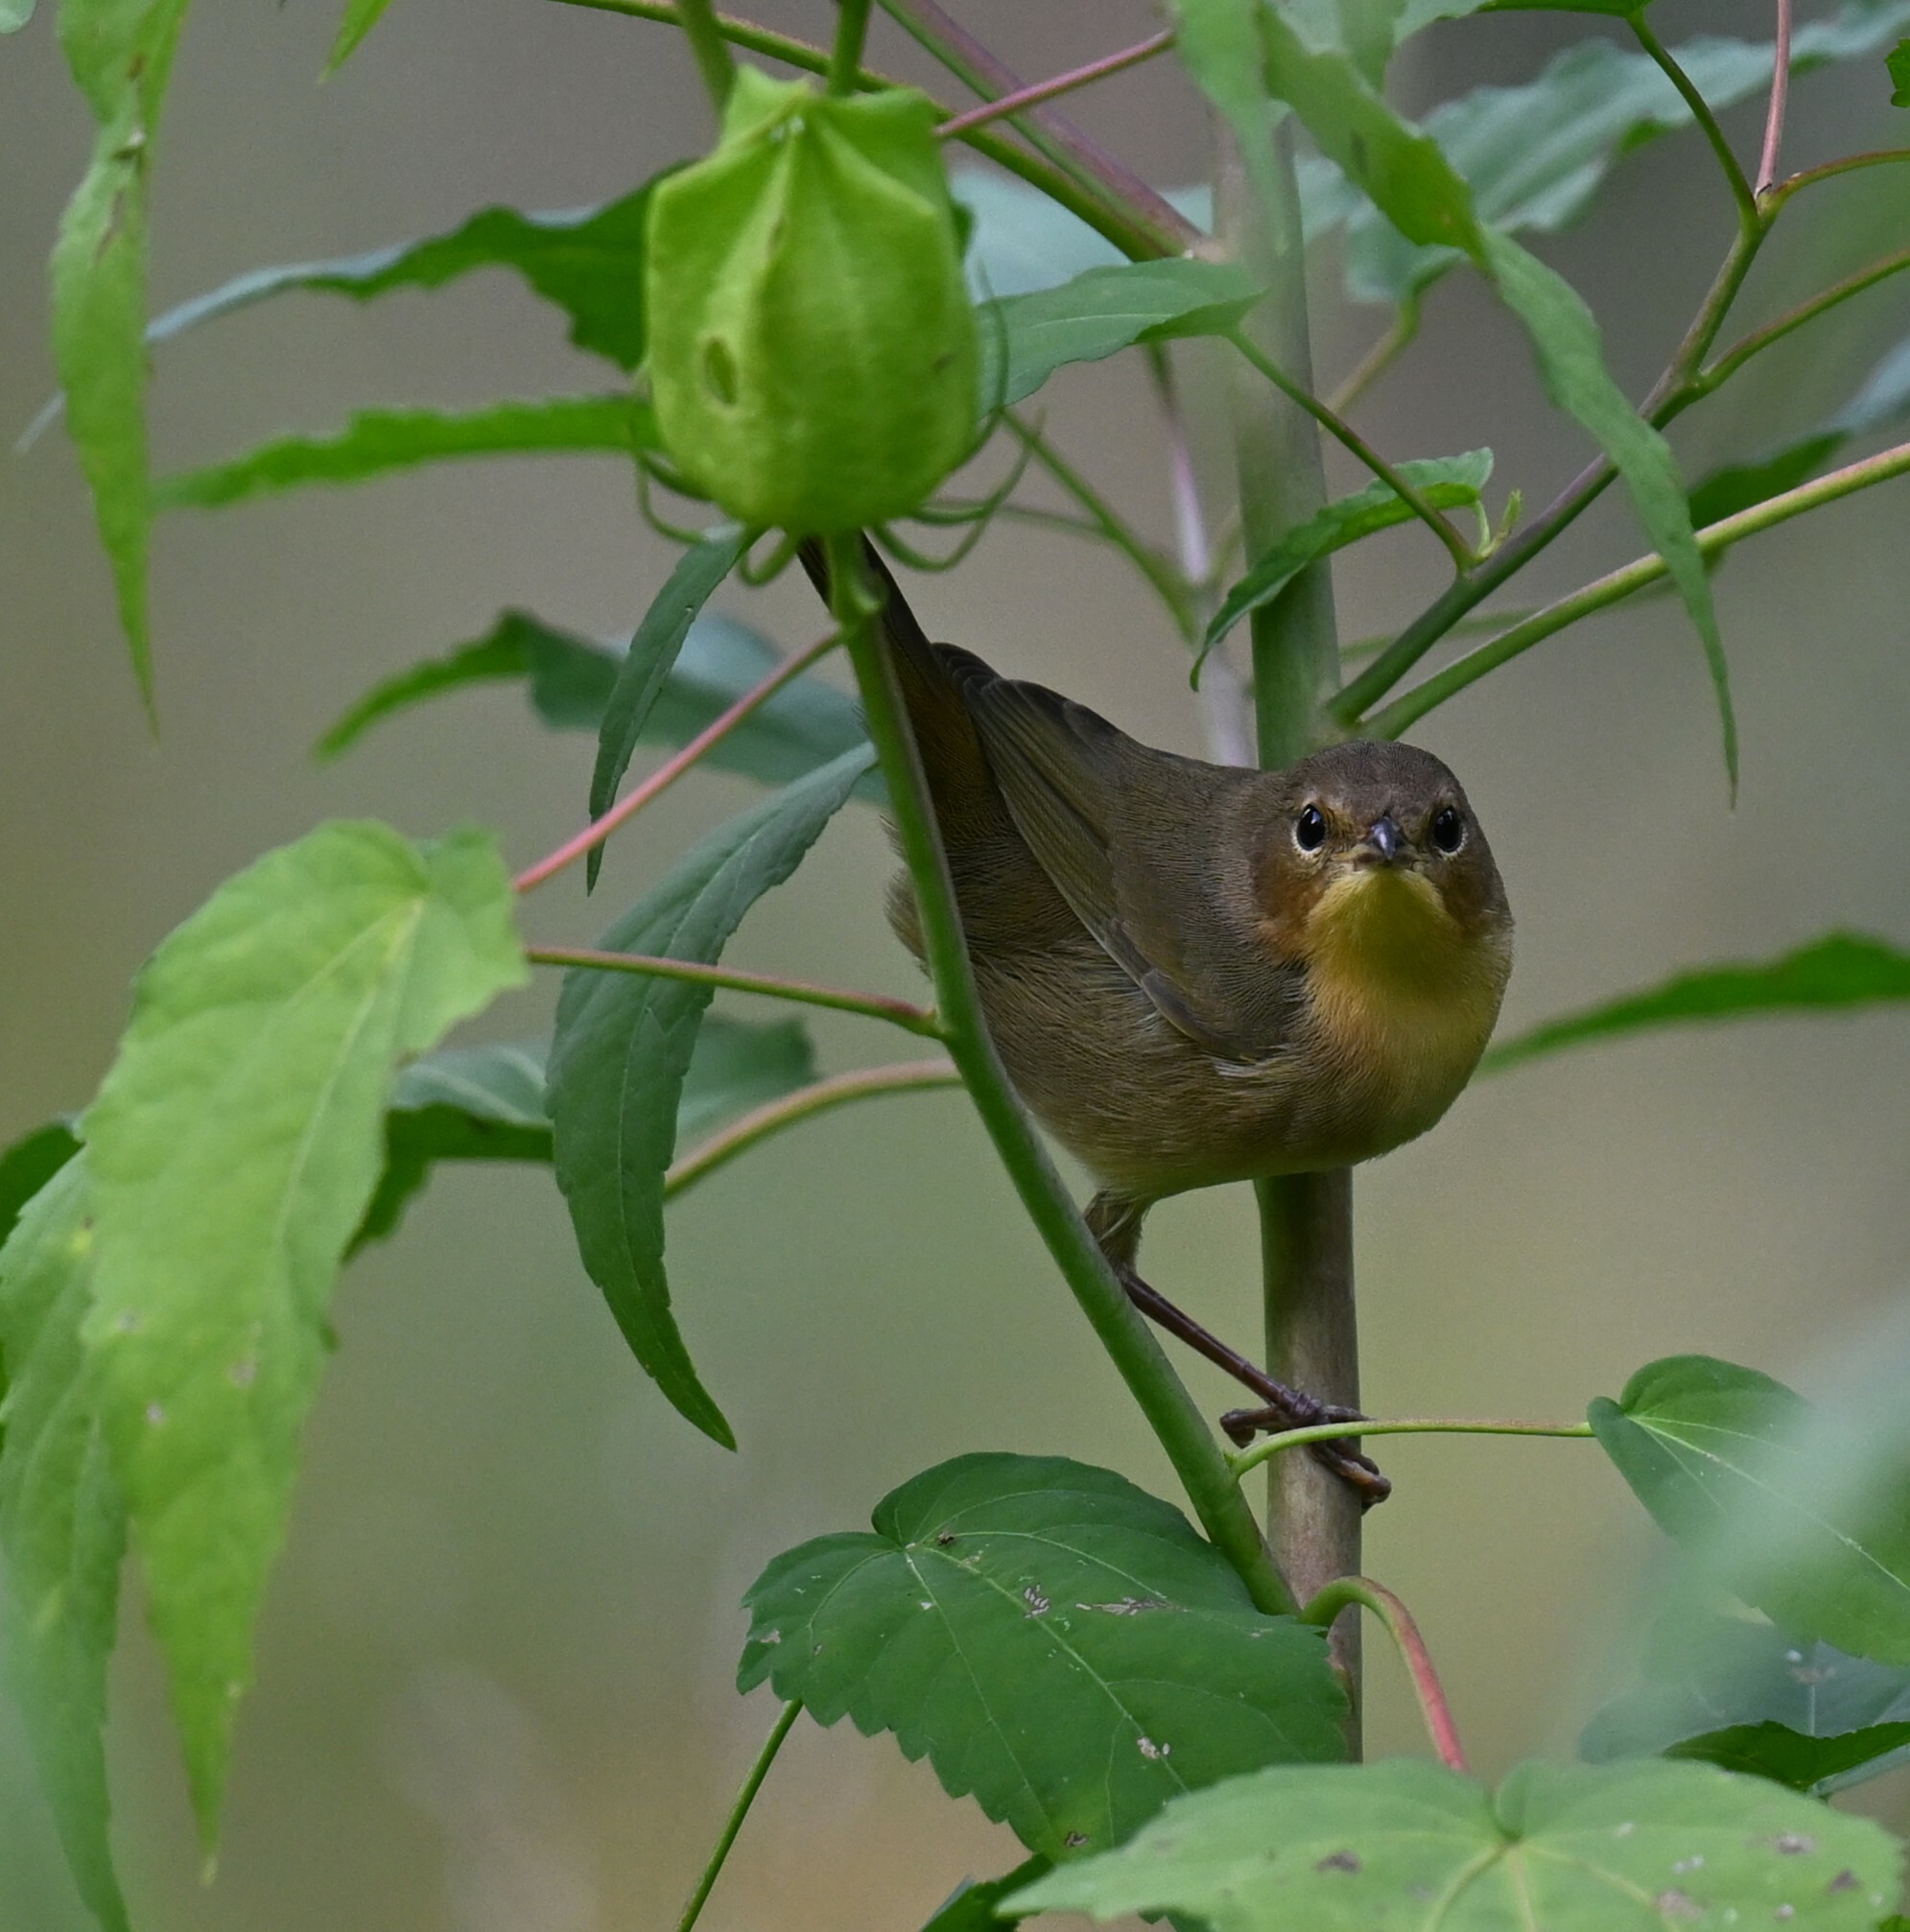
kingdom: Animalia
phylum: Chordata
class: Aves
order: Passeriformes
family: Parulidae
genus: Geothlypis
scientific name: Geothlypis trichas
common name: Common yellowthroat
